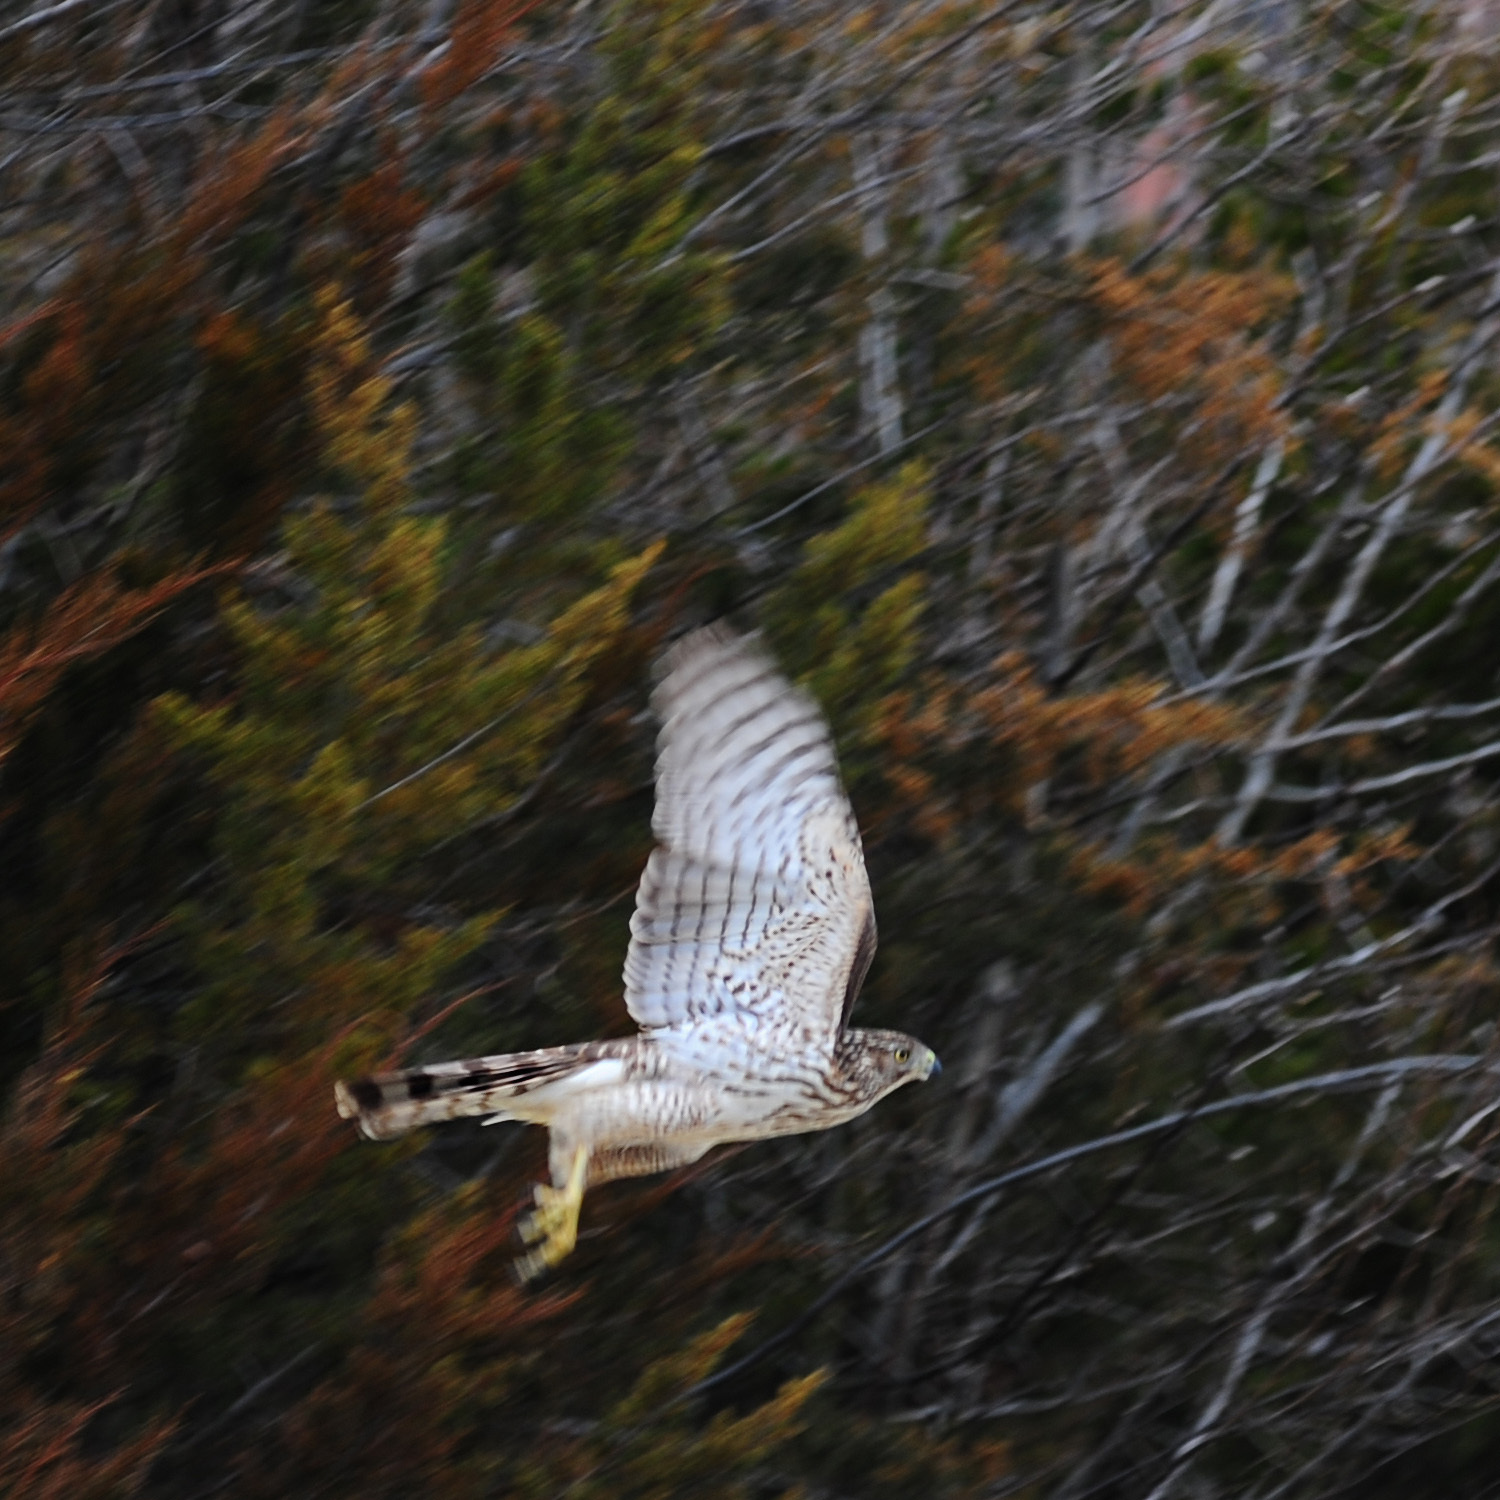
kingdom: Animalia
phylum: Chordata
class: Aves
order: Accipitriformes
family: Accipitridae
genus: Accipiter
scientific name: Accipiter cooperii
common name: Cooper's hawk
